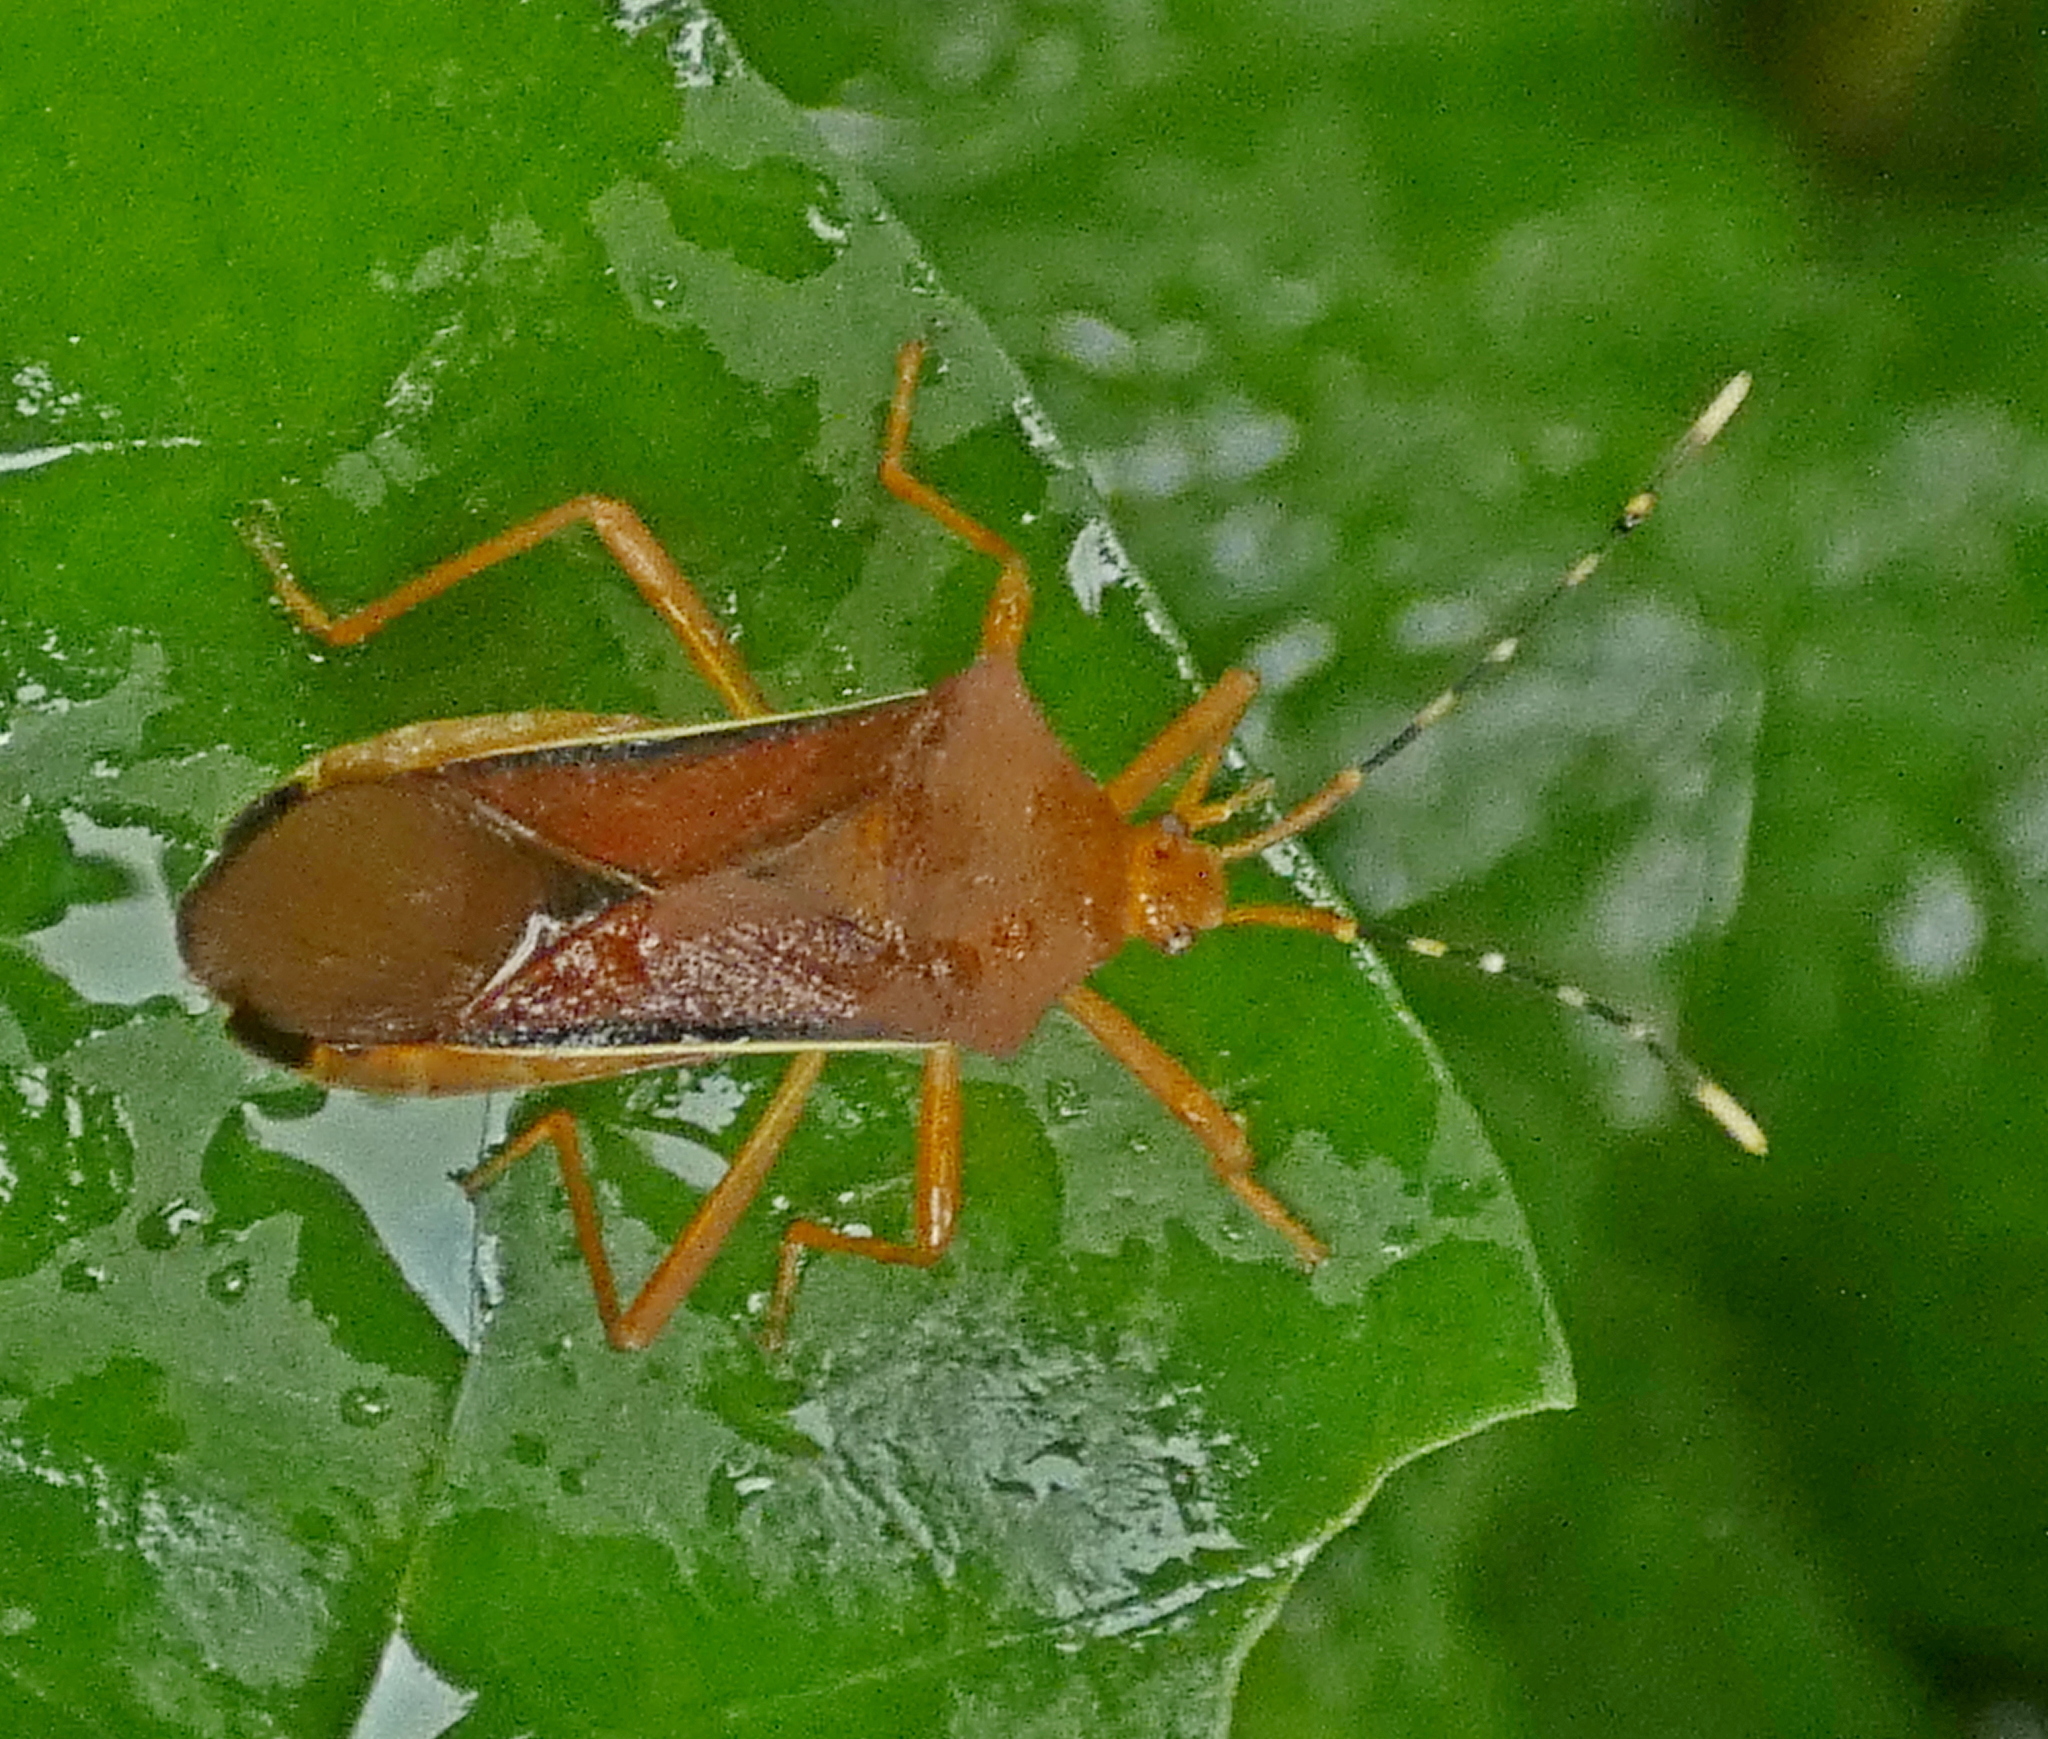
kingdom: Animalia
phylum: Arthropoda
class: Insecta
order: Hemiptera
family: Coreidae
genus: Anasa
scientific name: Anasa varicornis
